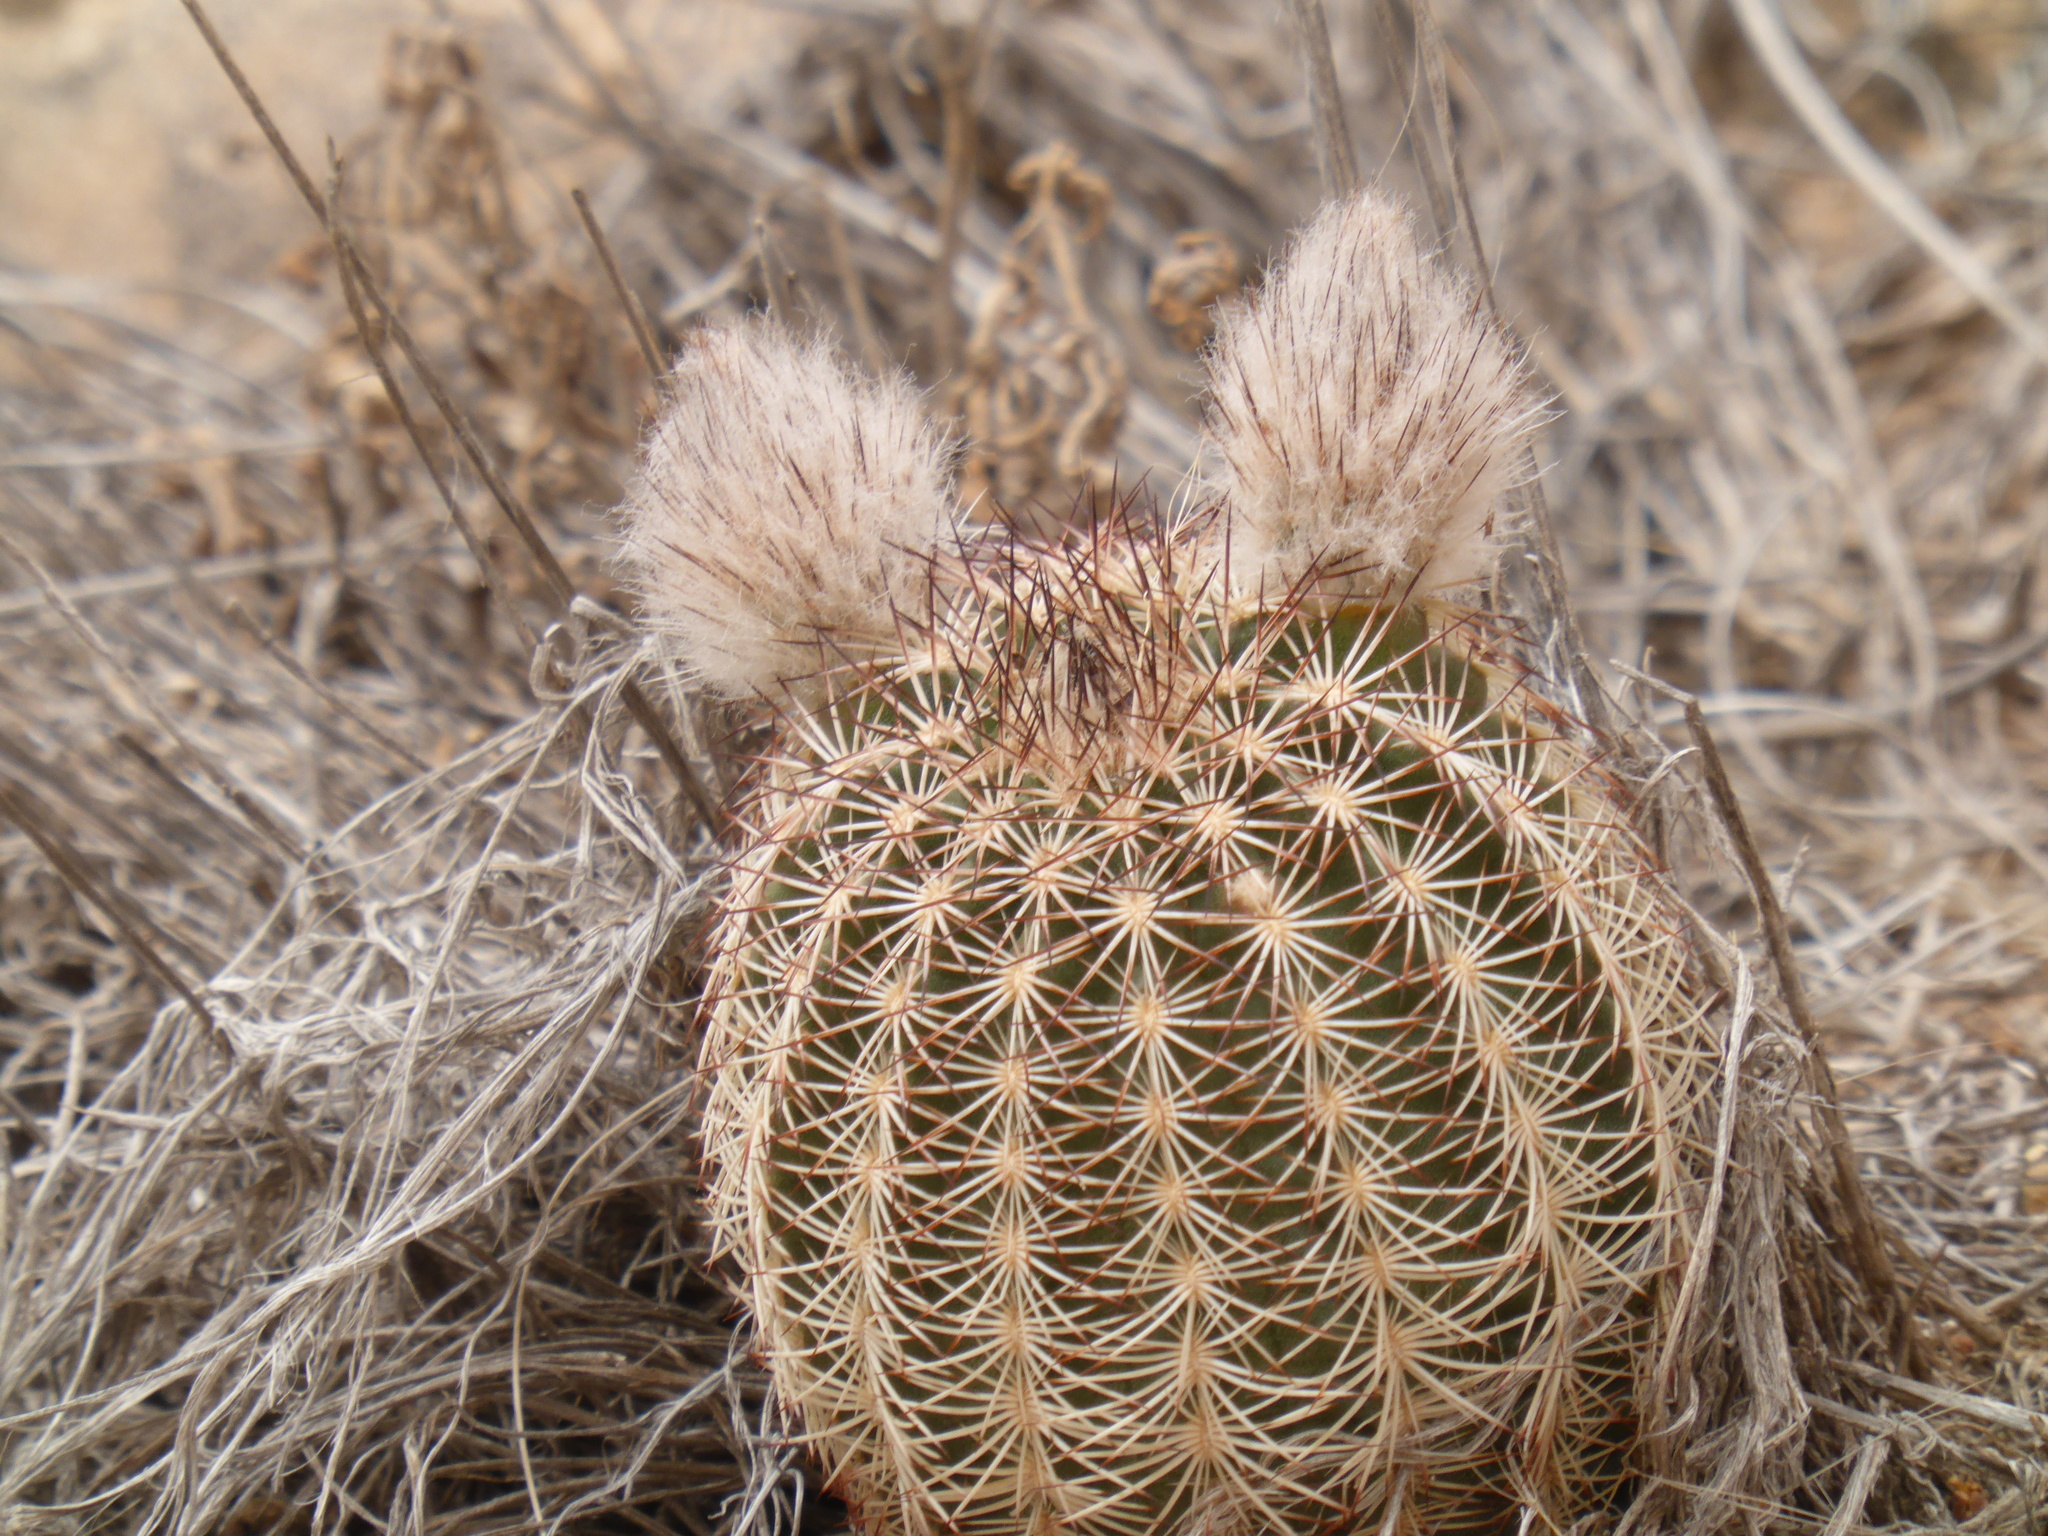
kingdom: Plantae
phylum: Tracheophyta
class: Magnoliopsida
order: Caryophyllales
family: Cactaceae
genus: Echinocereus
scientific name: Echinocereus reichenbachii
